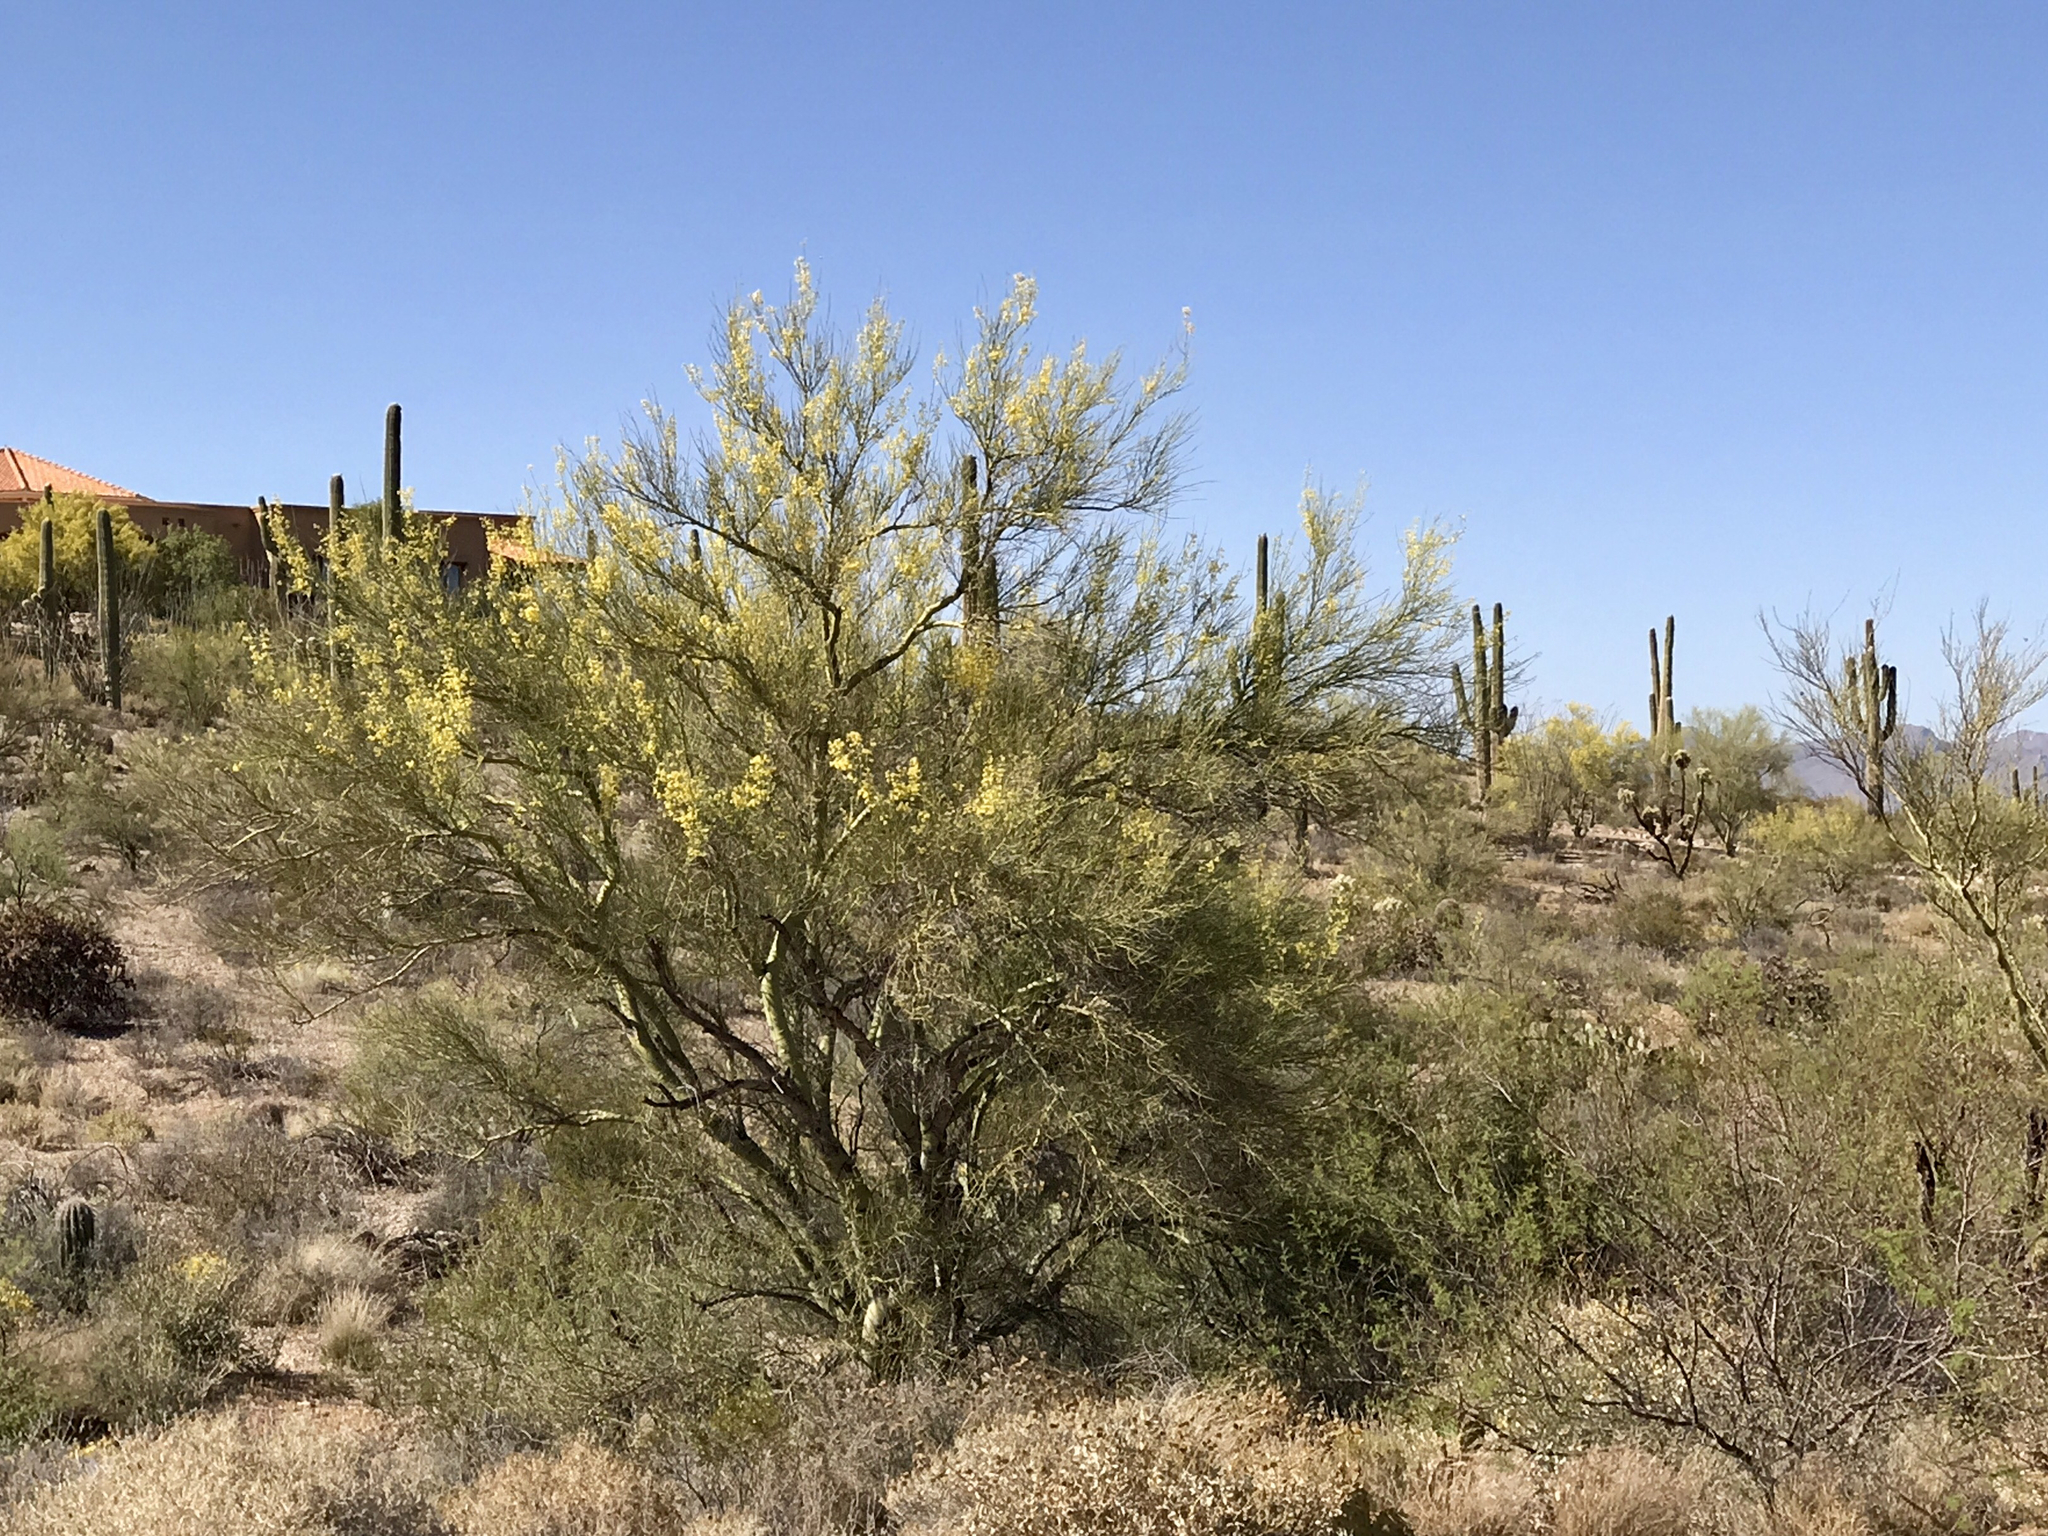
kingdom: Plantae
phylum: Tracheophyta
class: Magnoliopsida
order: Fabales
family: Fabaceae
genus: Parkinsonia
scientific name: Parkinsonia microphylla
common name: Yellow paloverde
